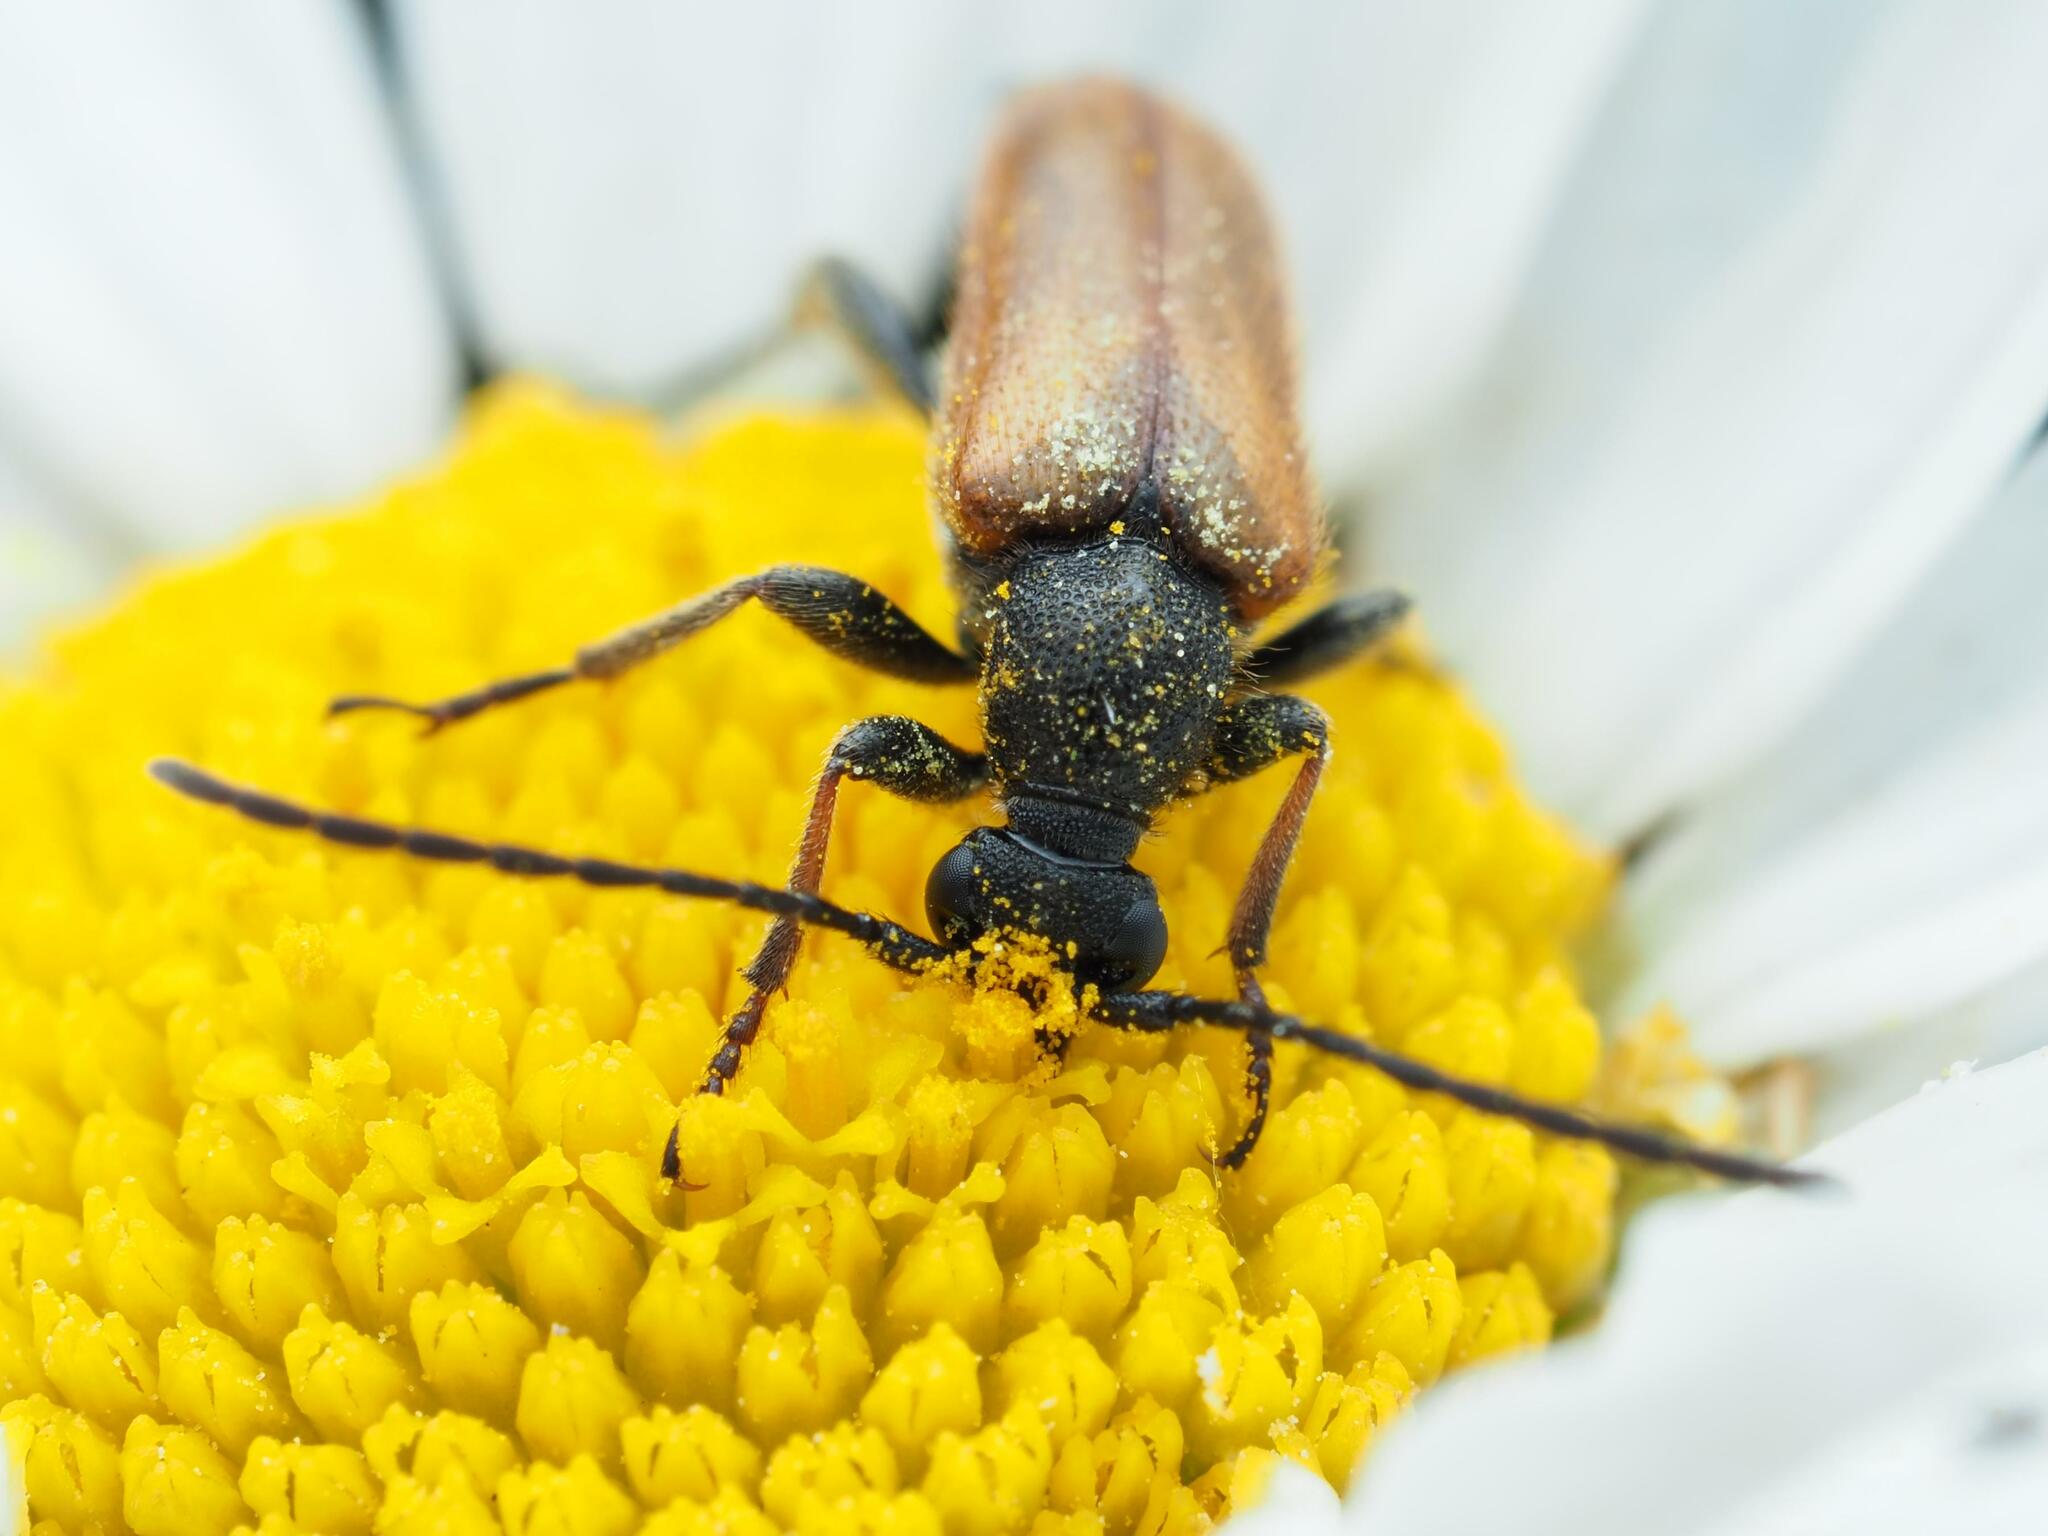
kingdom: Animalia
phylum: Arthropoda
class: Insecta
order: Coleoptera
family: Cerambycidae
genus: Pseudovadonia
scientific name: Pseudovadonia livida
